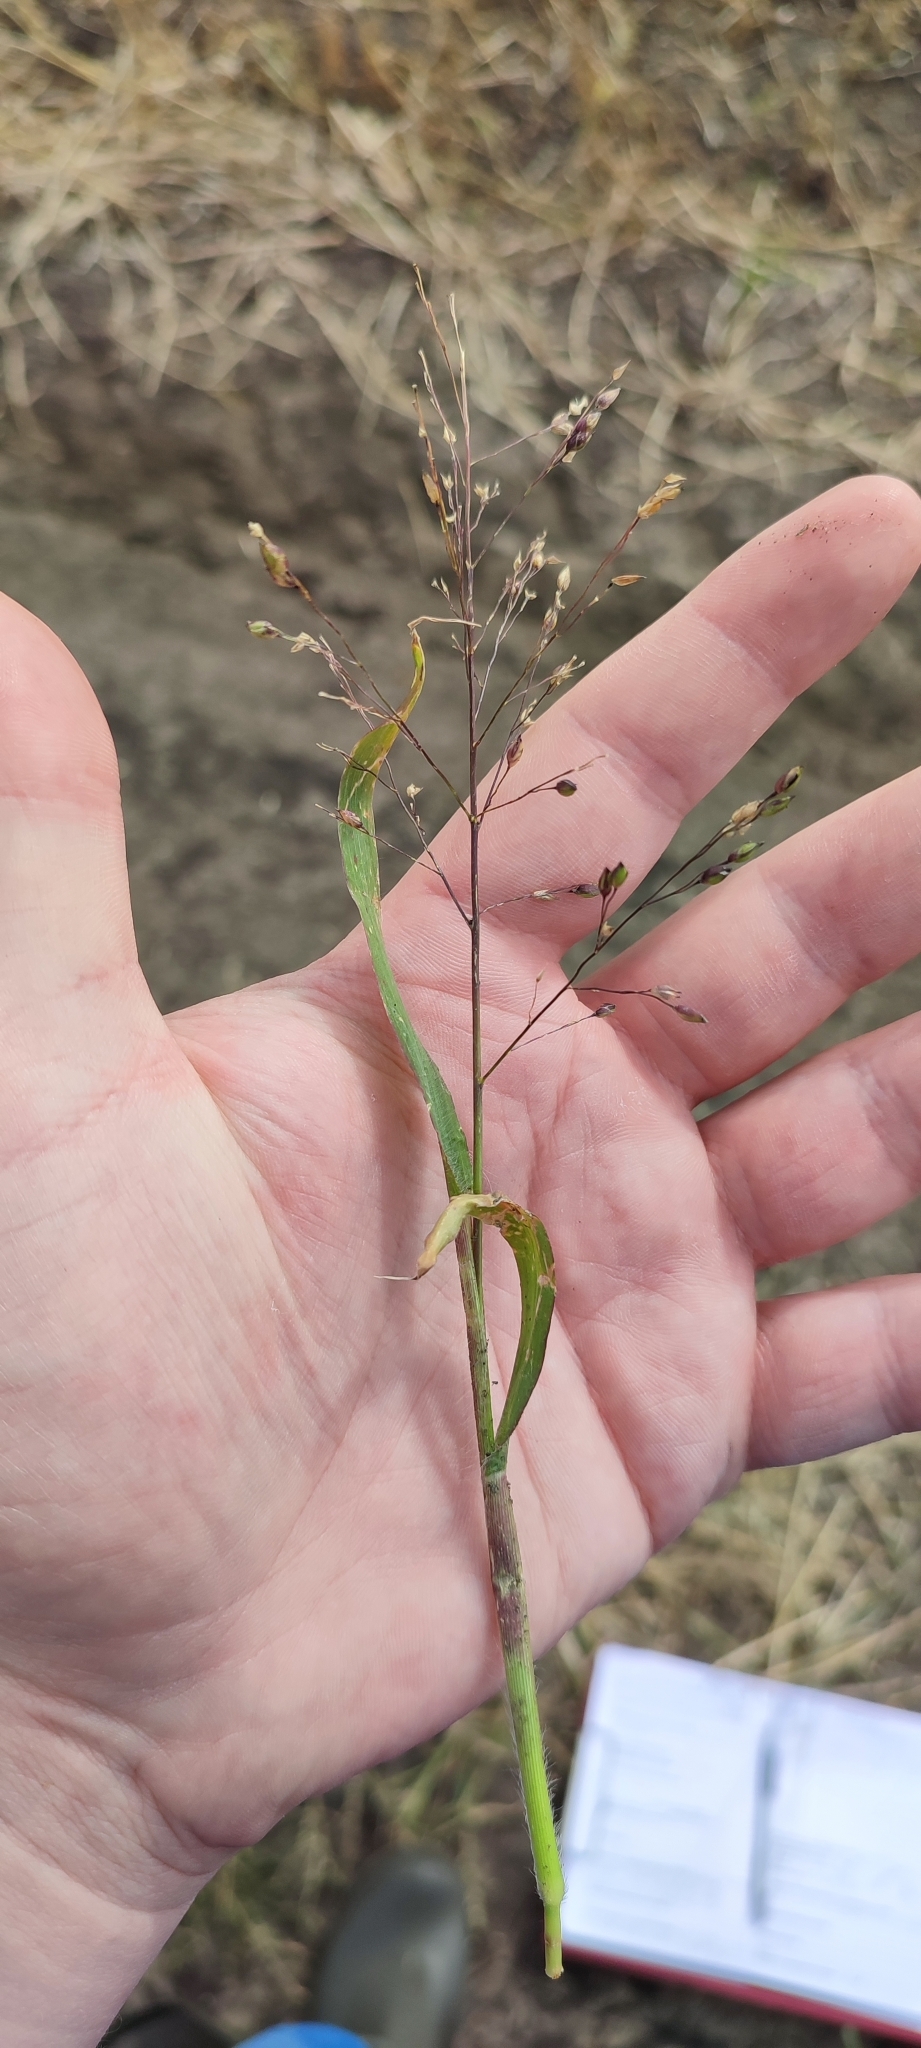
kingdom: Plantae
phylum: Tracheophyta
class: Liliopsida
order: Poales
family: Poaceae
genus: Panicum
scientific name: Panicum miliaceum
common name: Common millet
